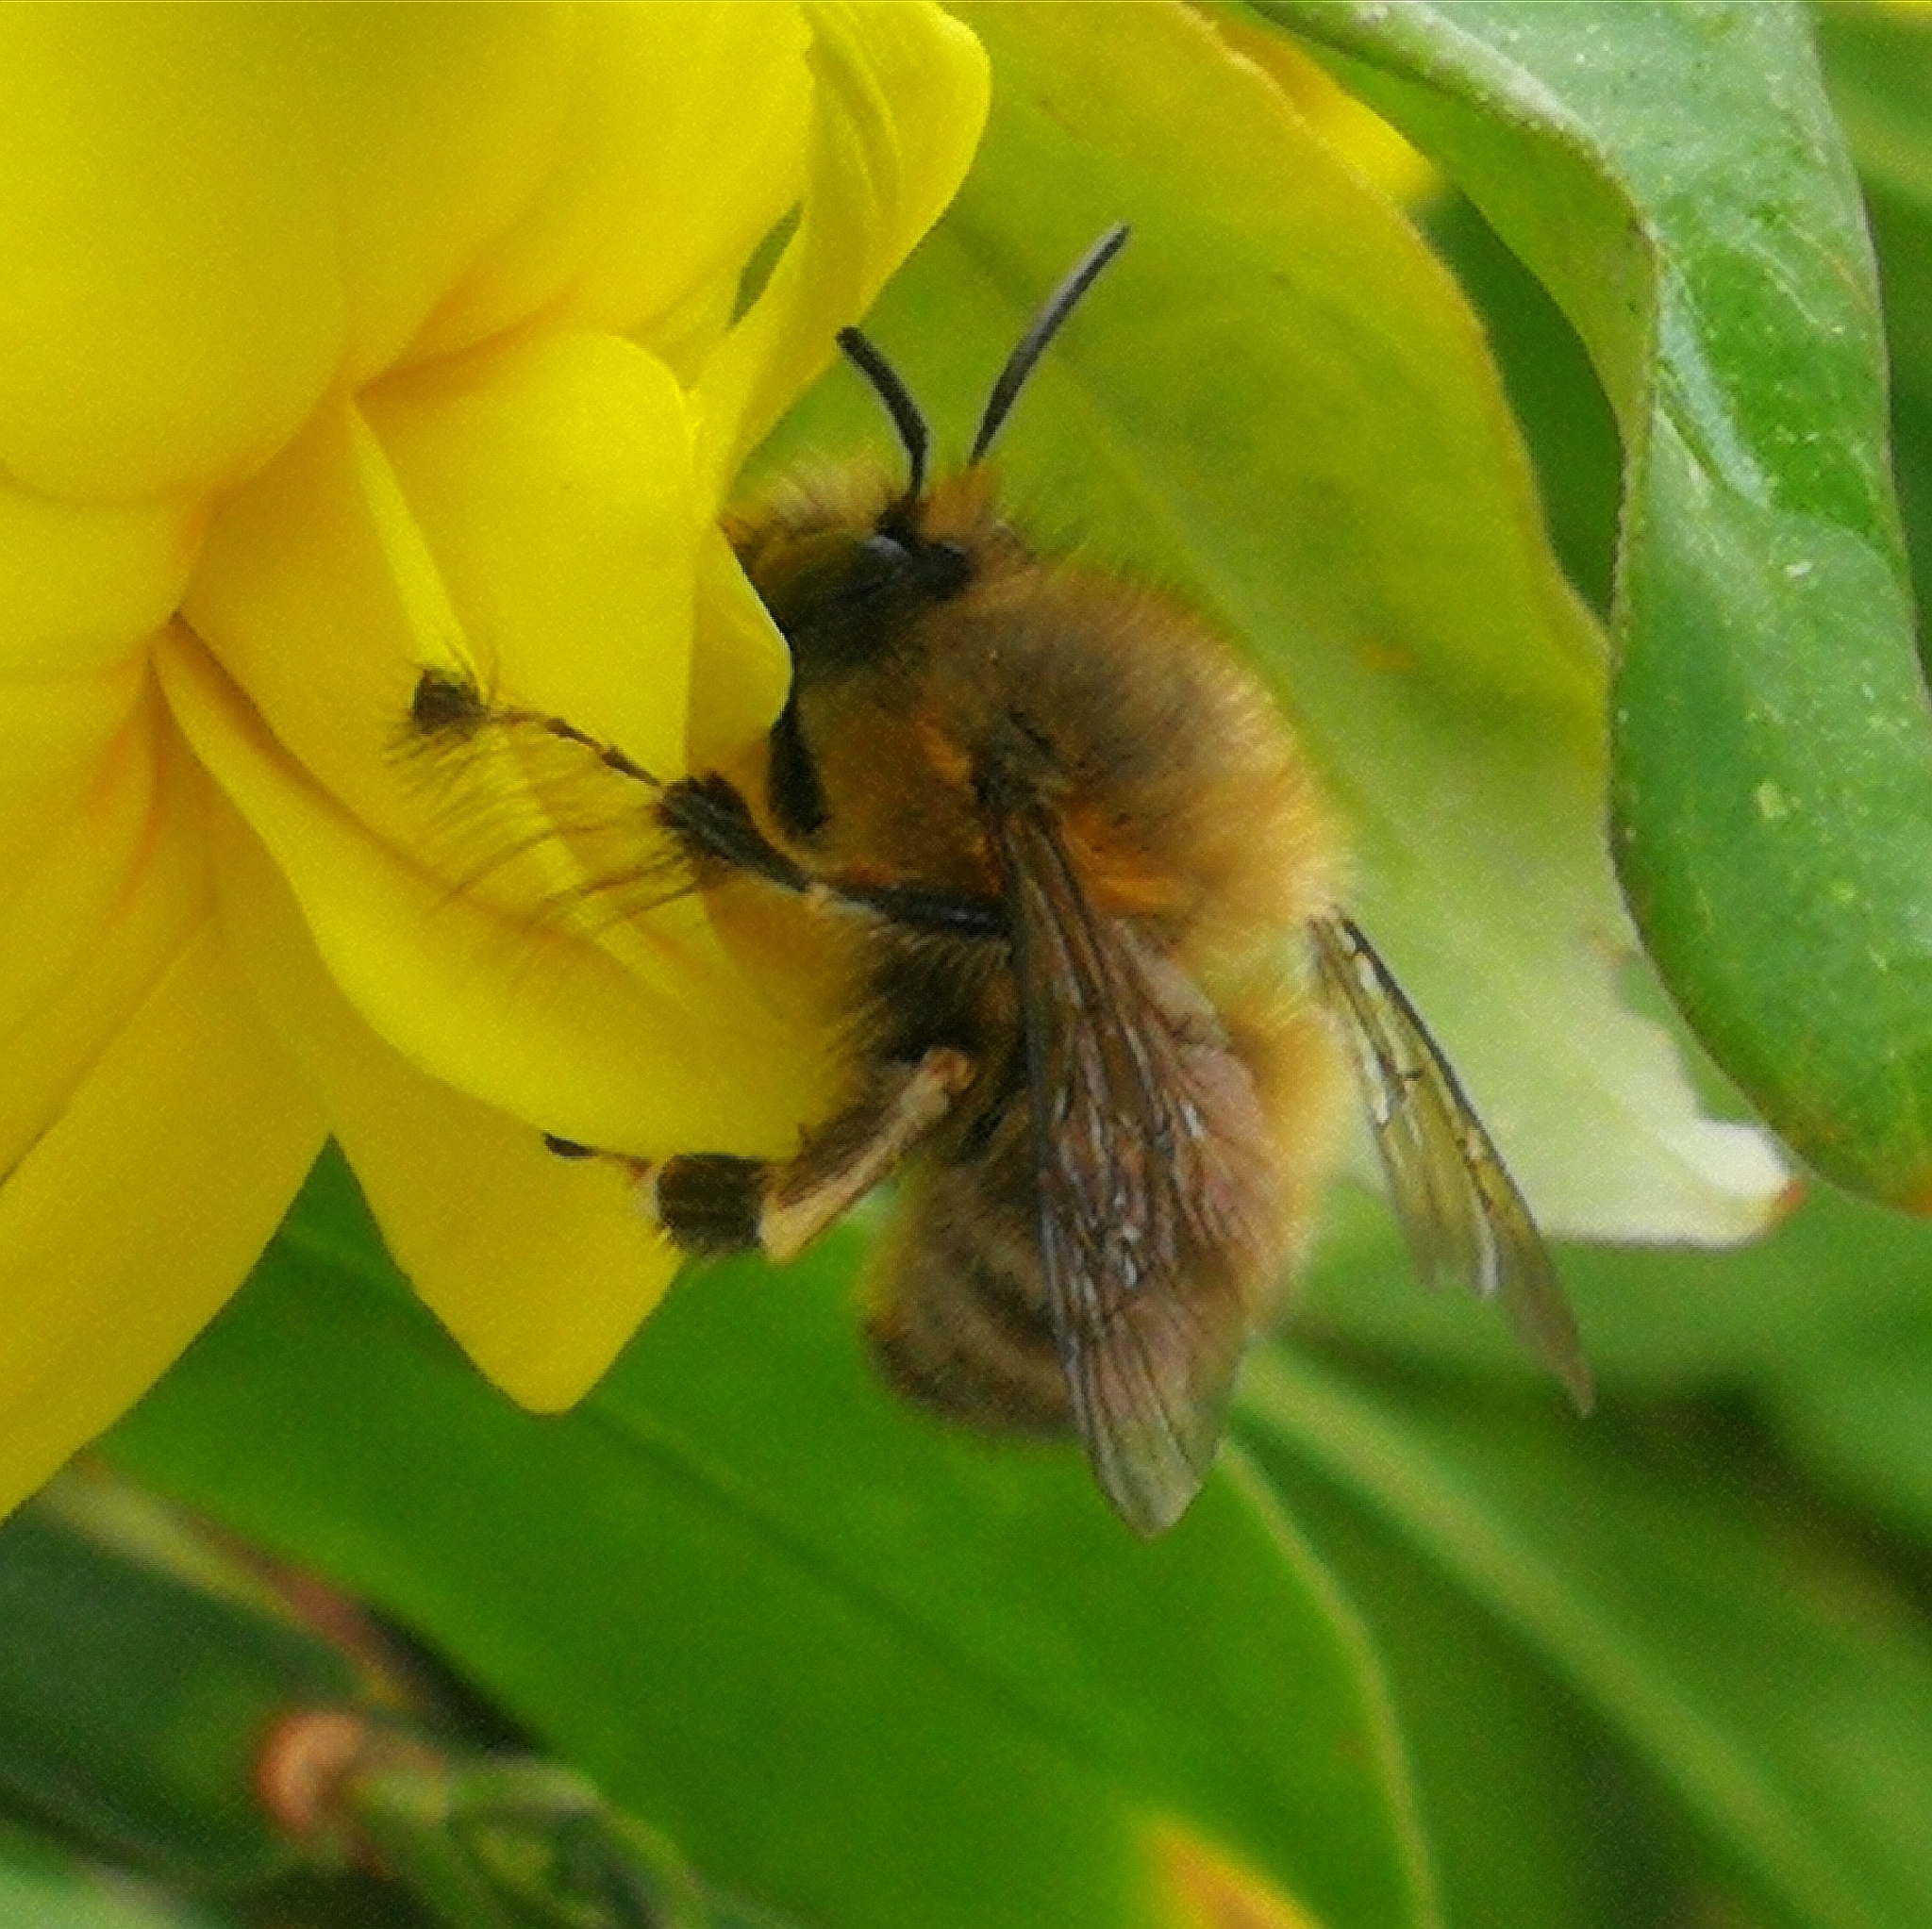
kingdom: Animalia
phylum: Arthropoda
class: Insecta
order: Hymenoptera
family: Apidae
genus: Anthophora
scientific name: Anthophora plumipes
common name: Hairy-footed flower bee
